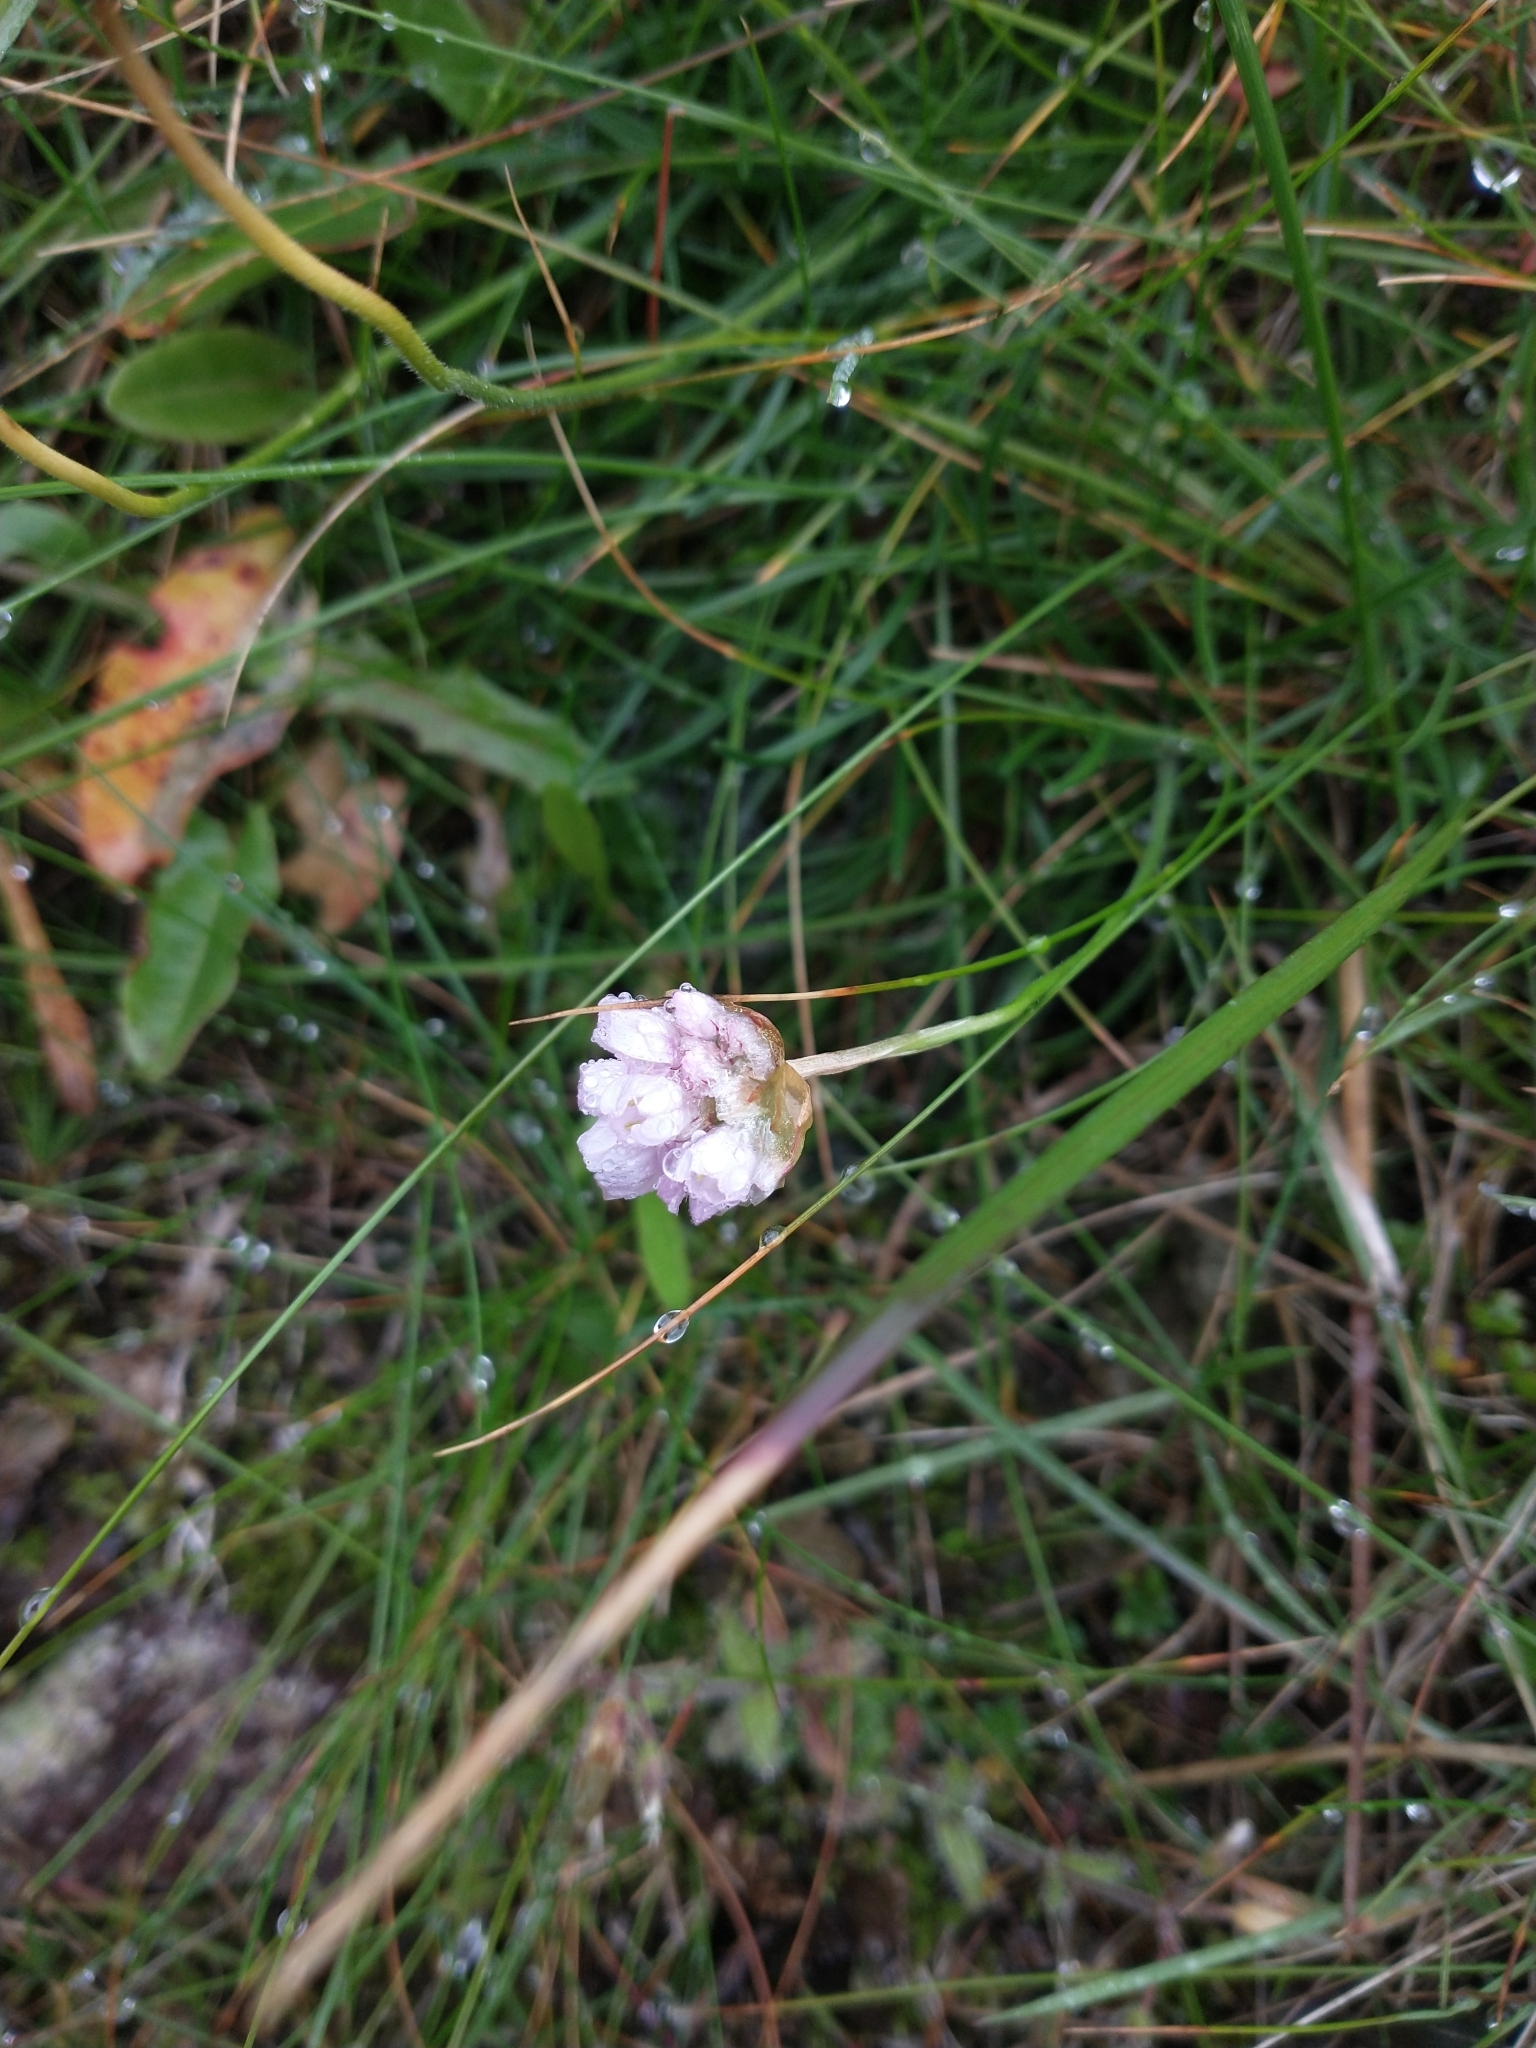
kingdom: Plantae
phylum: Tracheophyta
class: Magnoliopsida
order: Caryophyllales
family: Plumbaginaceae
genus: Armeria
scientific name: Armeria maritima
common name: Thrift
